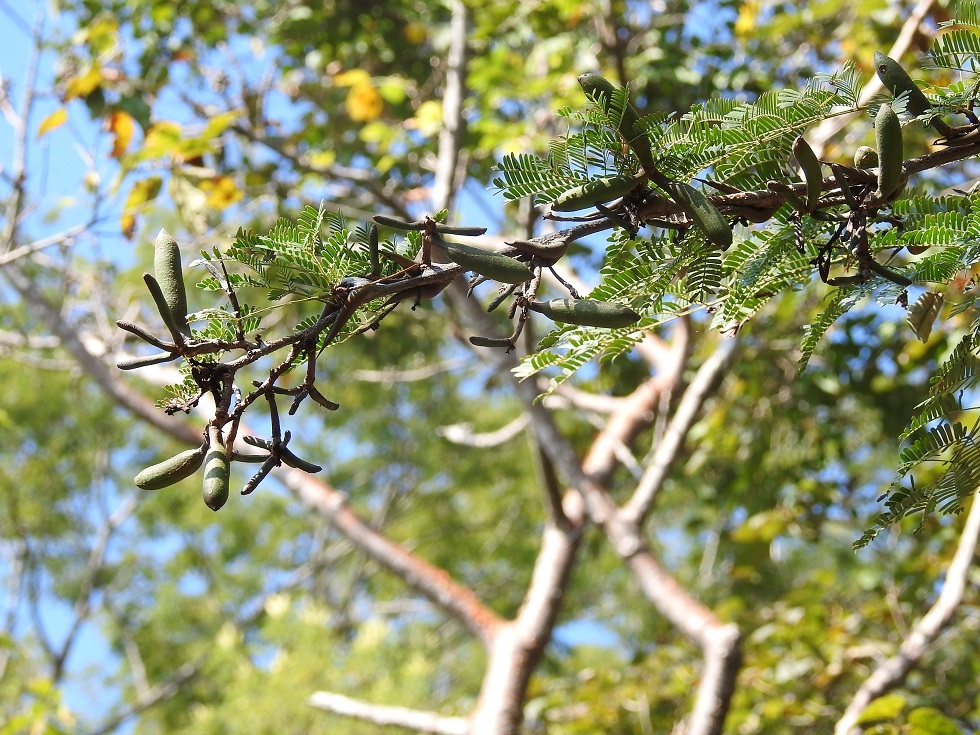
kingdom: Plantae
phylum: Tracheophyta
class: Magnoliopsida
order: Fabales
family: Fabaceae
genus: Vachellia
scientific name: Vachellia cornigera
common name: Bullhorn wattle
